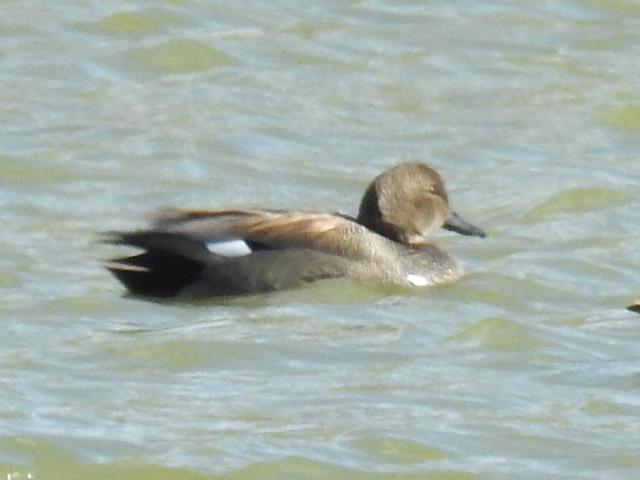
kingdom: Animalia
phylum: Chordata
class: Aves
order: Anseriformes
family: Anatidae
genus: Mareca
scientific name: Mareca strepera
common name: Gadwall
